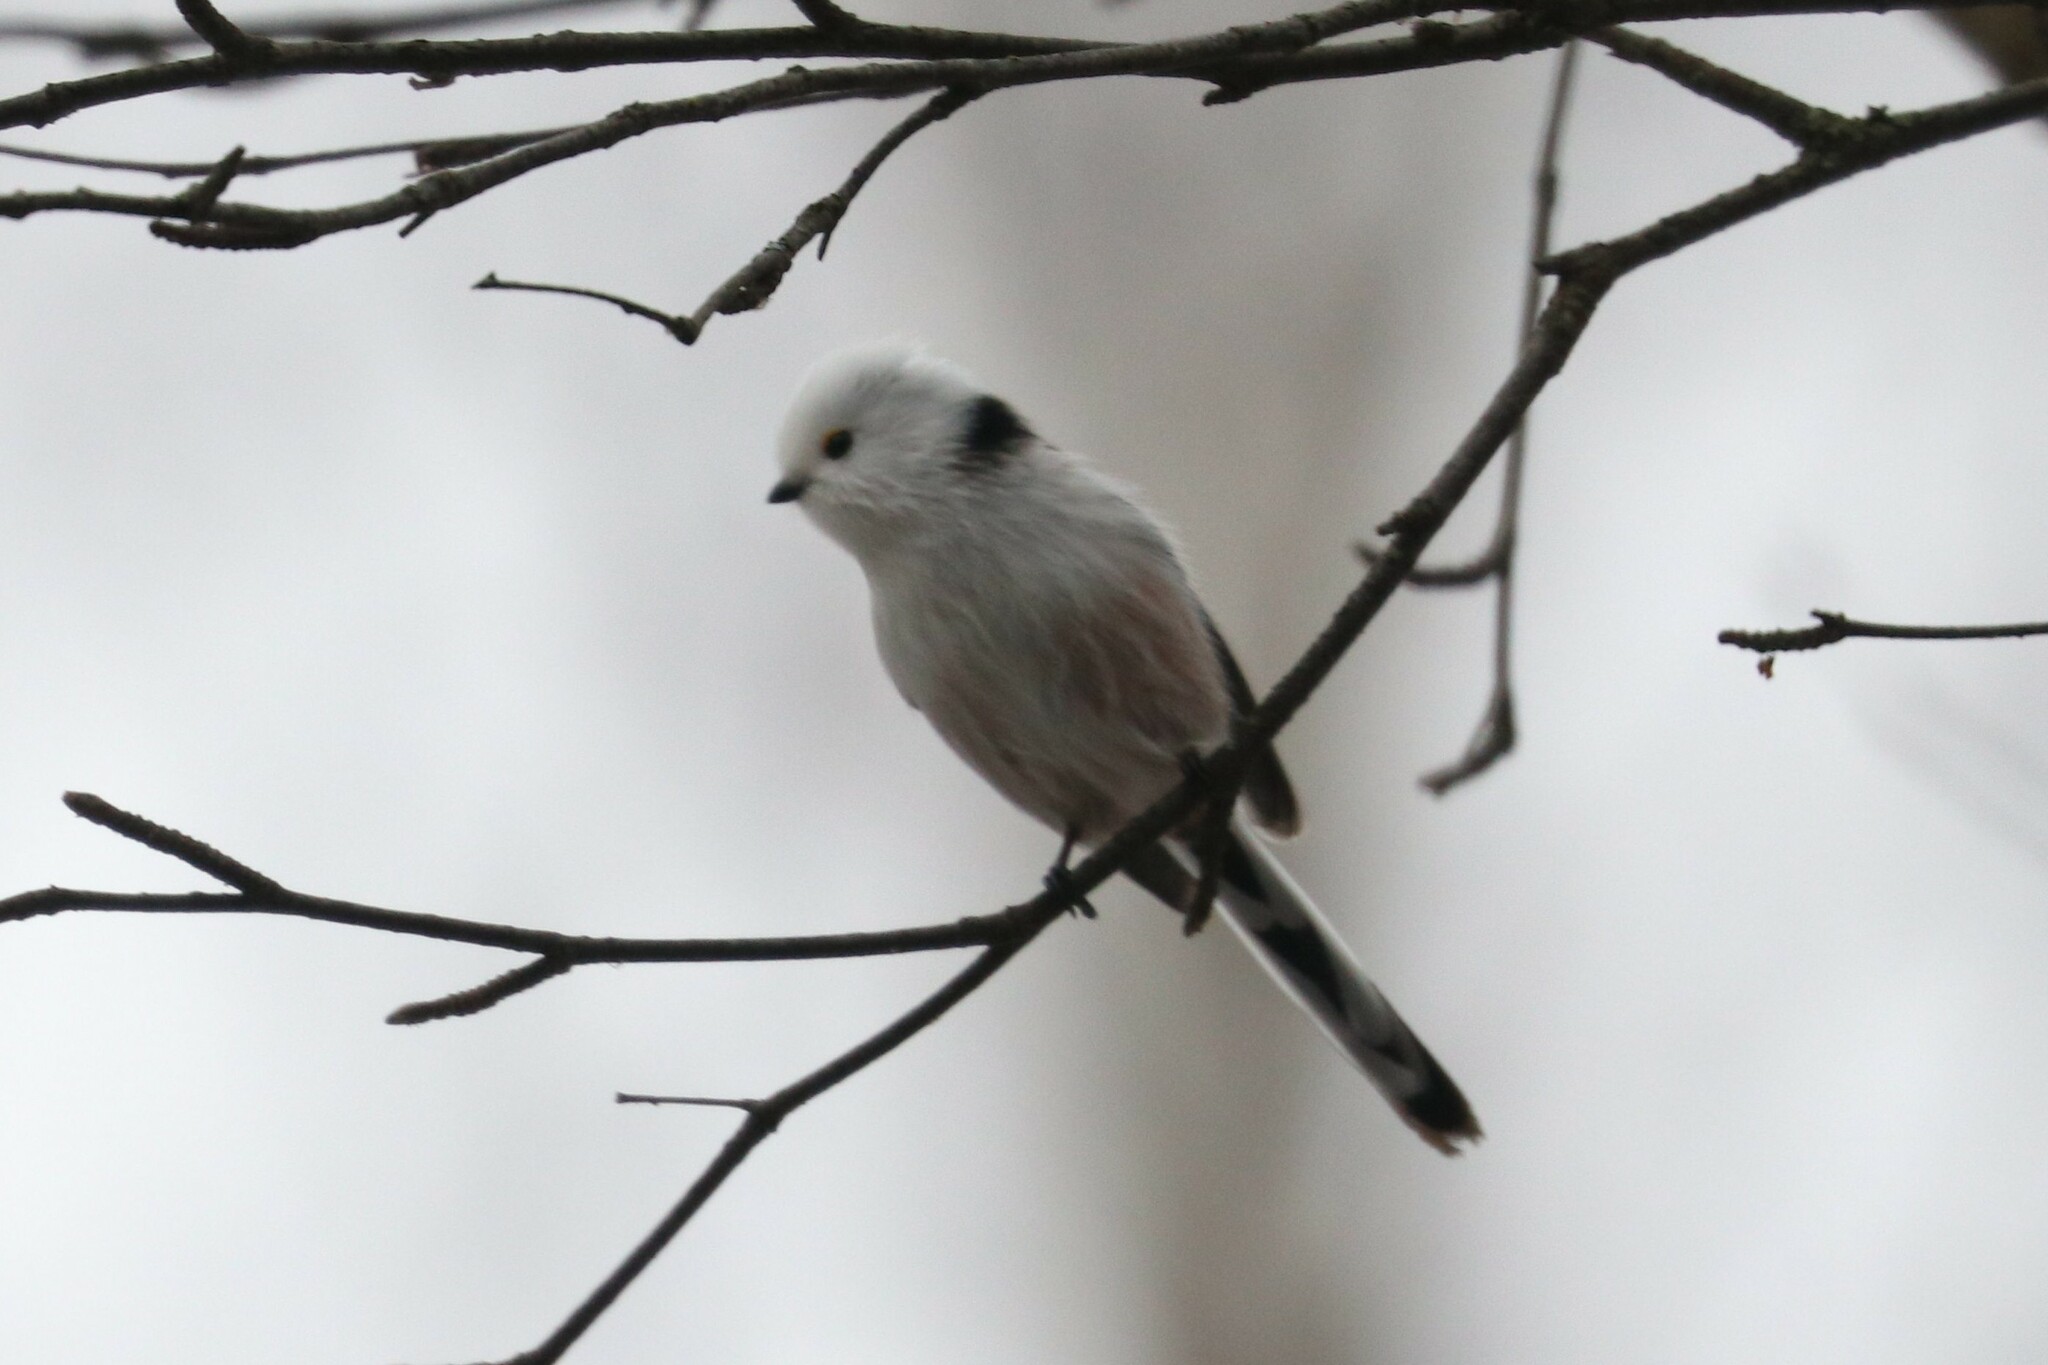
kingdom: Animalia
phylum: Chordata
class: Aves
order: Passeriformes
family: Aegithalidae
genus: Aegithalos
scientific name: Aegithalos caudatus
